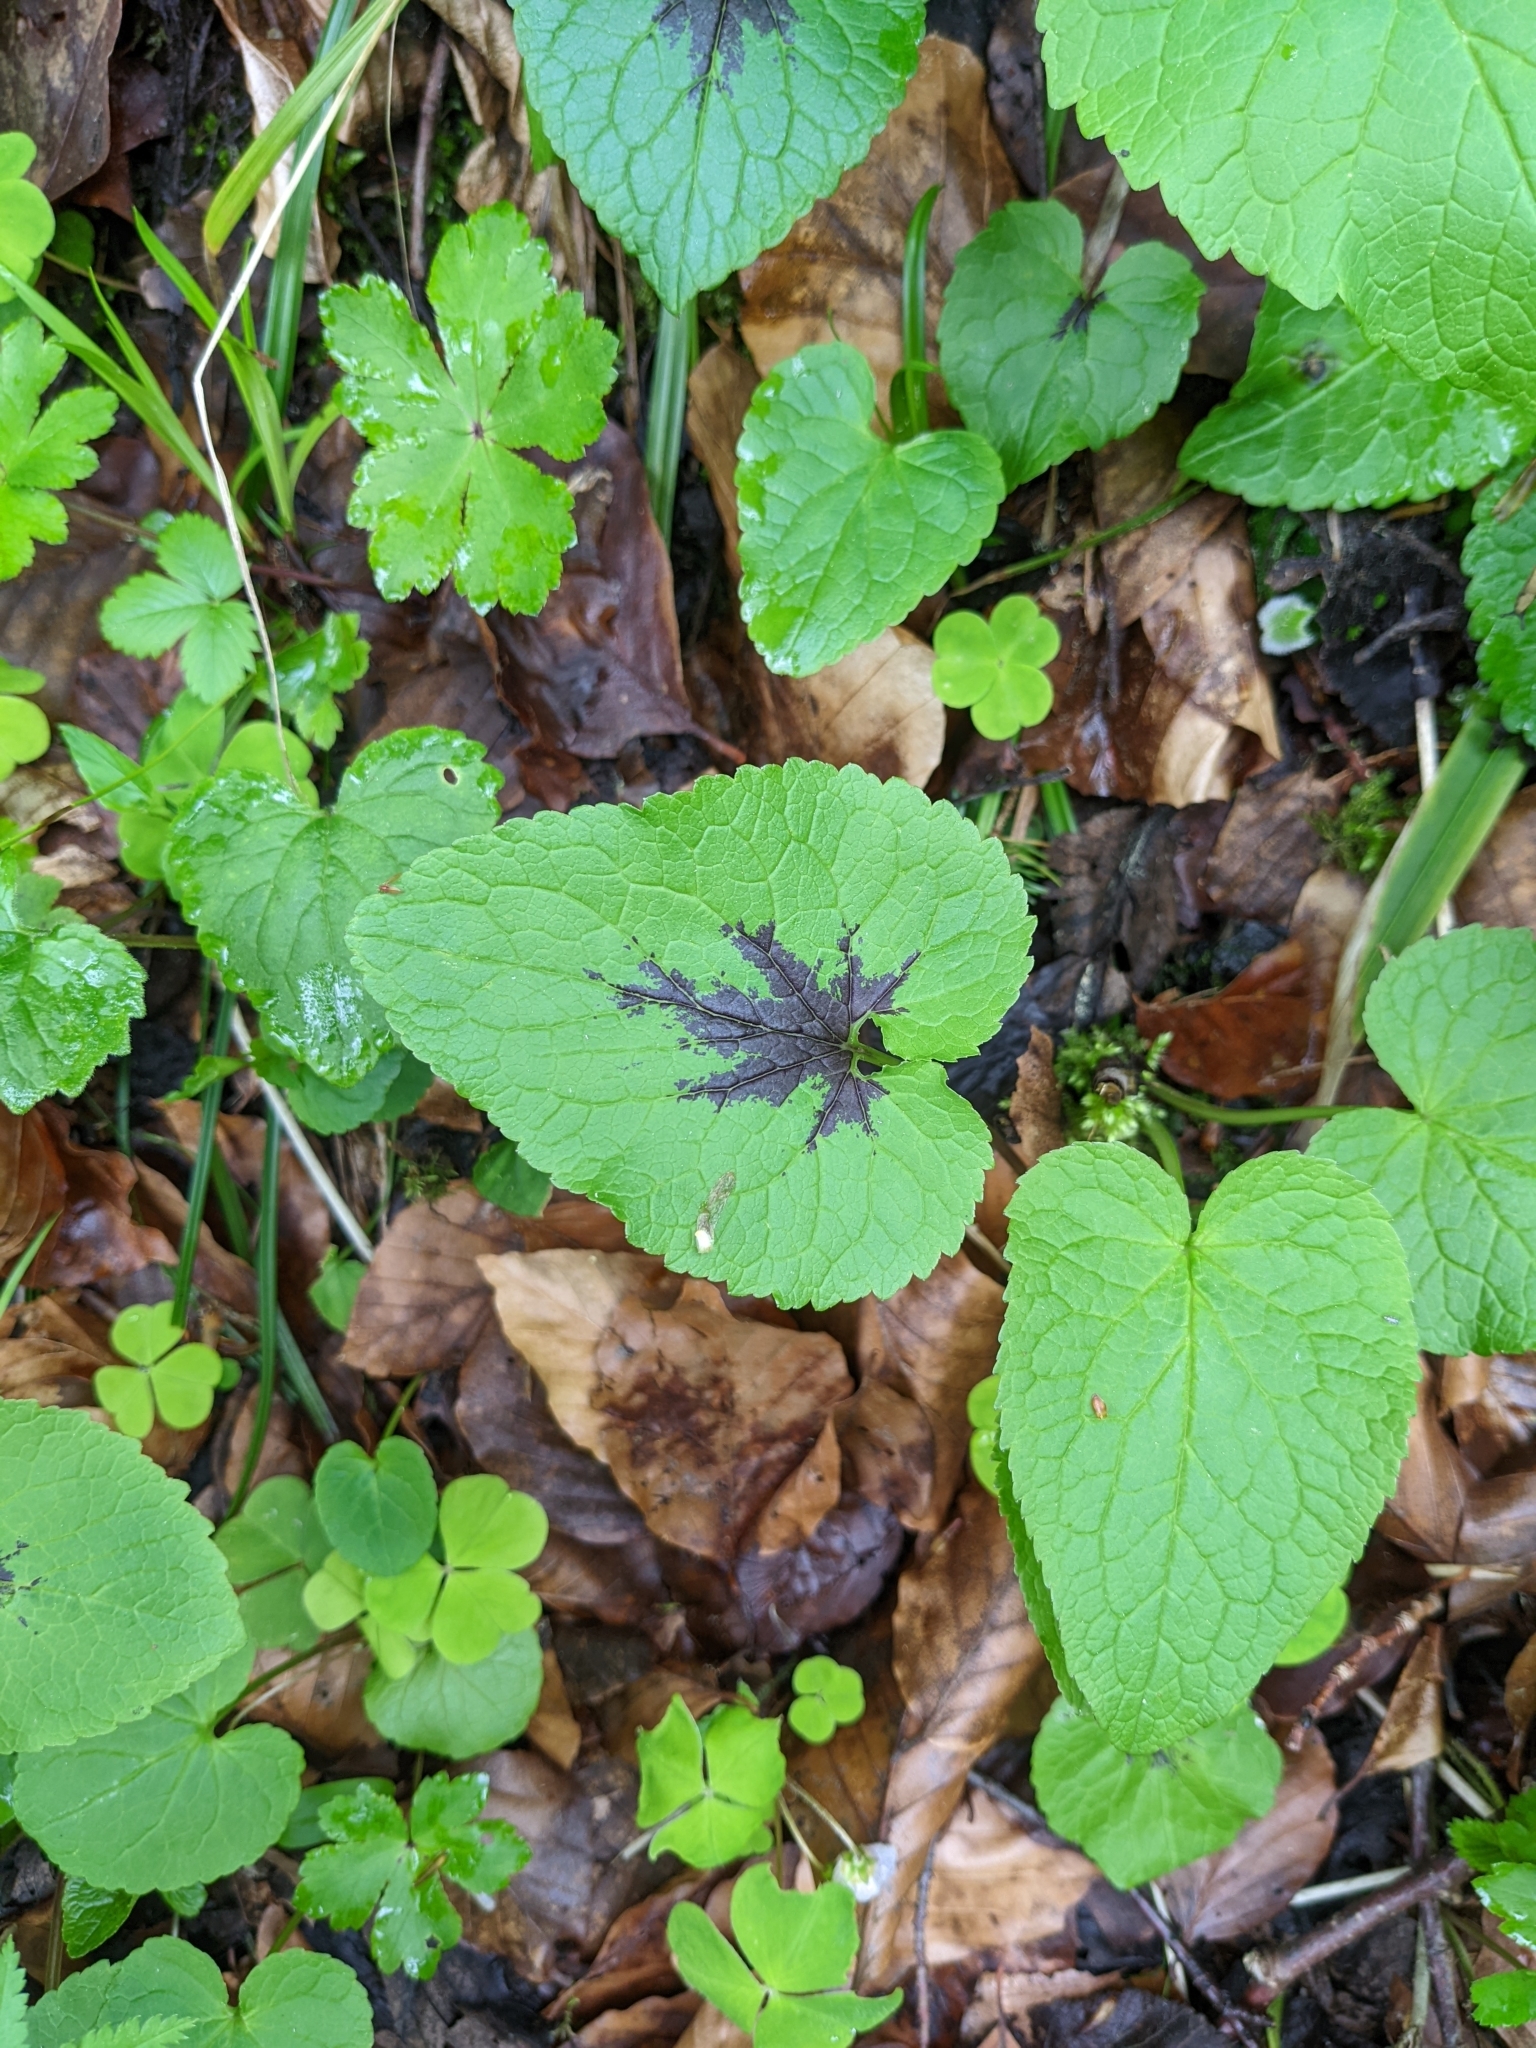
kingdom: Plantae
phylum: Tracheophyta
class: Magnoliopsida
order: Asterales
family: Campanulaceae
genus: Phyteuma
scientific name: Phyteuma spicatum
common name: Spiked rampion
